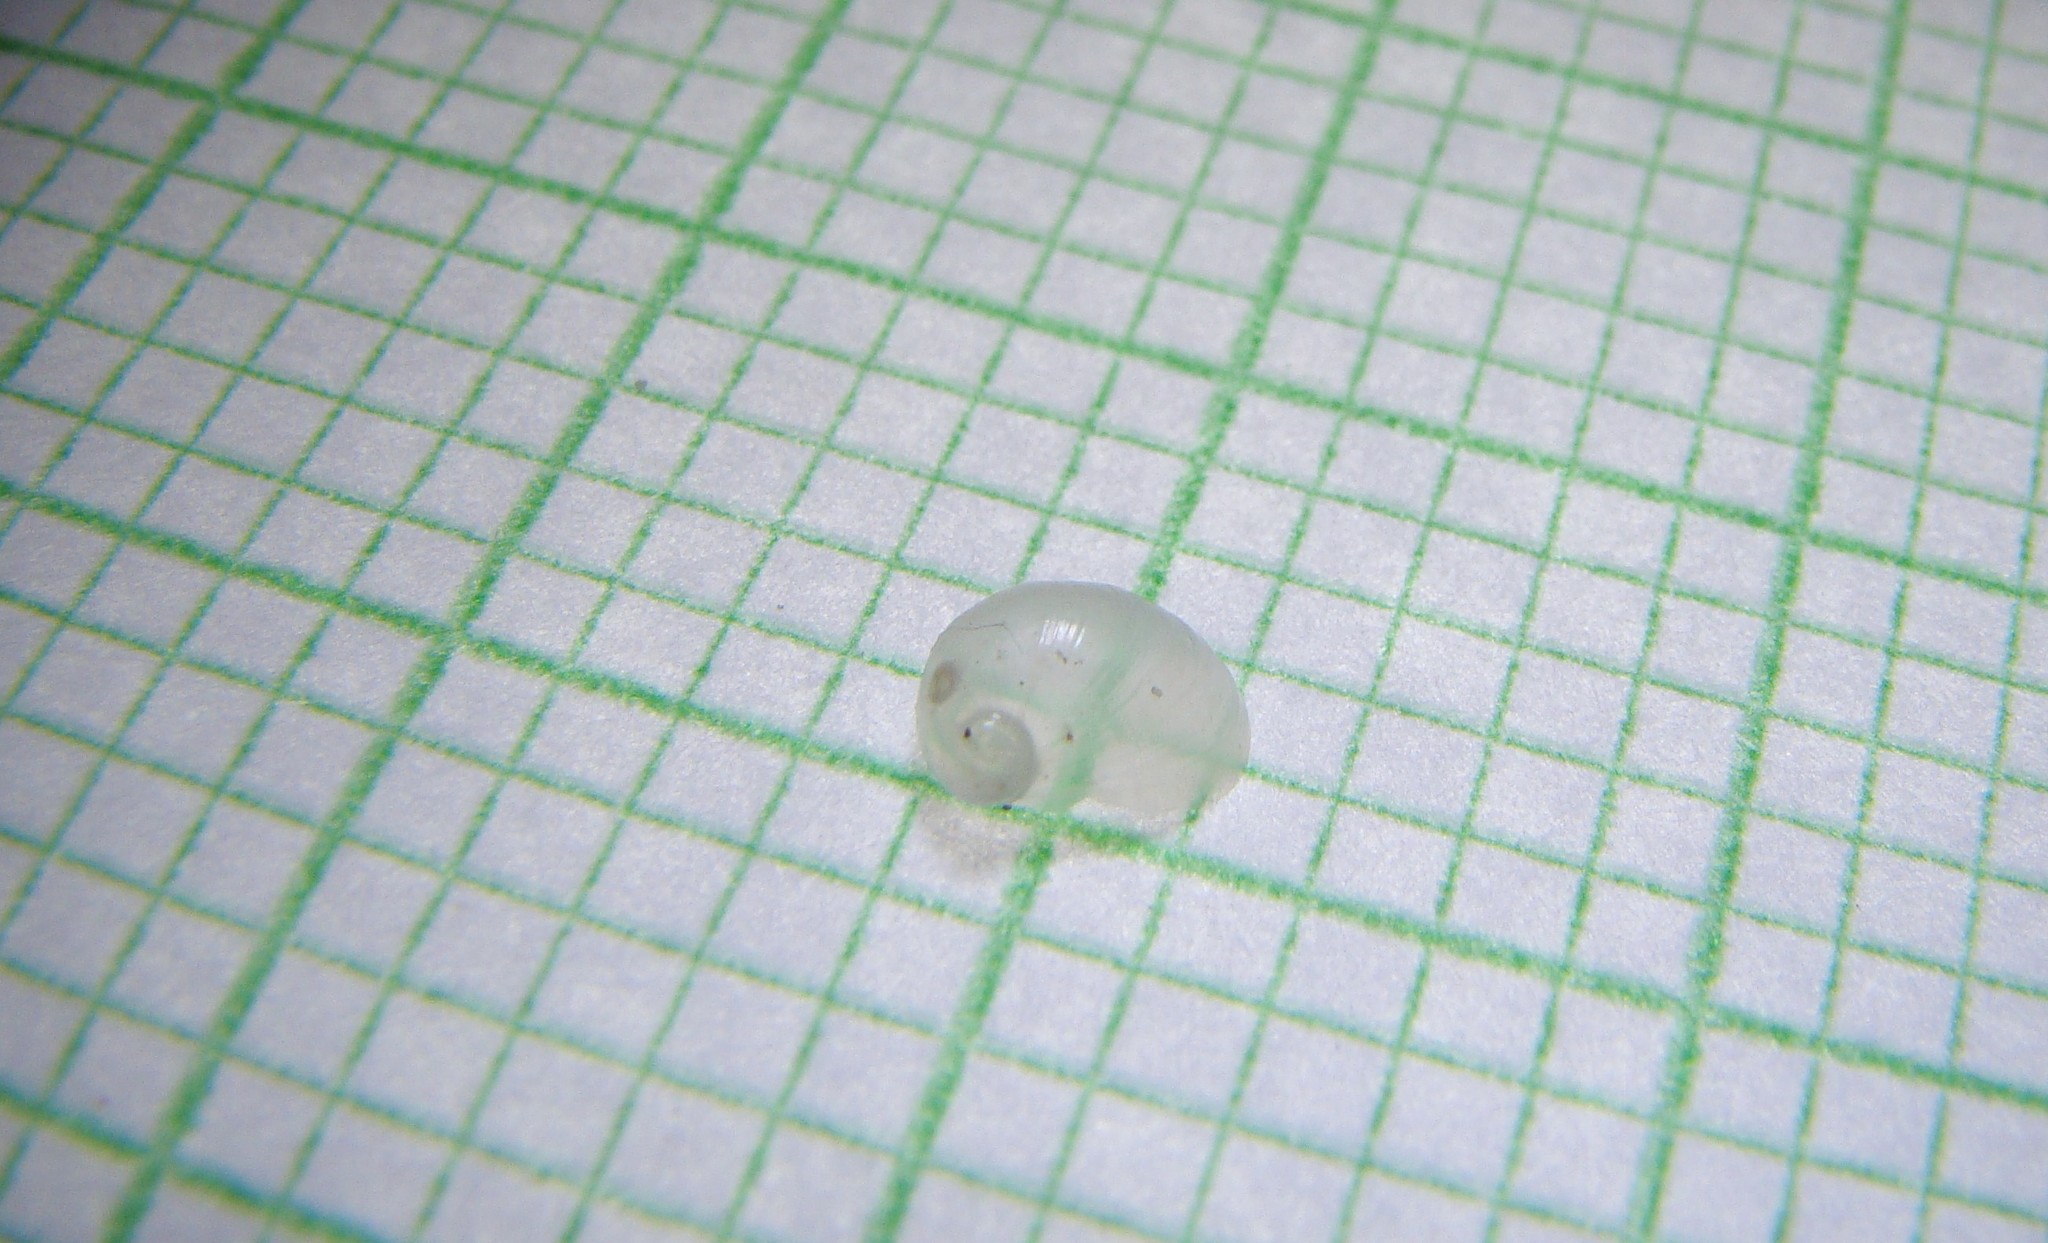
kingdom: Animalia
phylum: Mollusca
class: Gastropoda
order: Littorinimorpha
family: Velutinidae
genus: Lamellaria
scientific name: Lamellaria ophione
